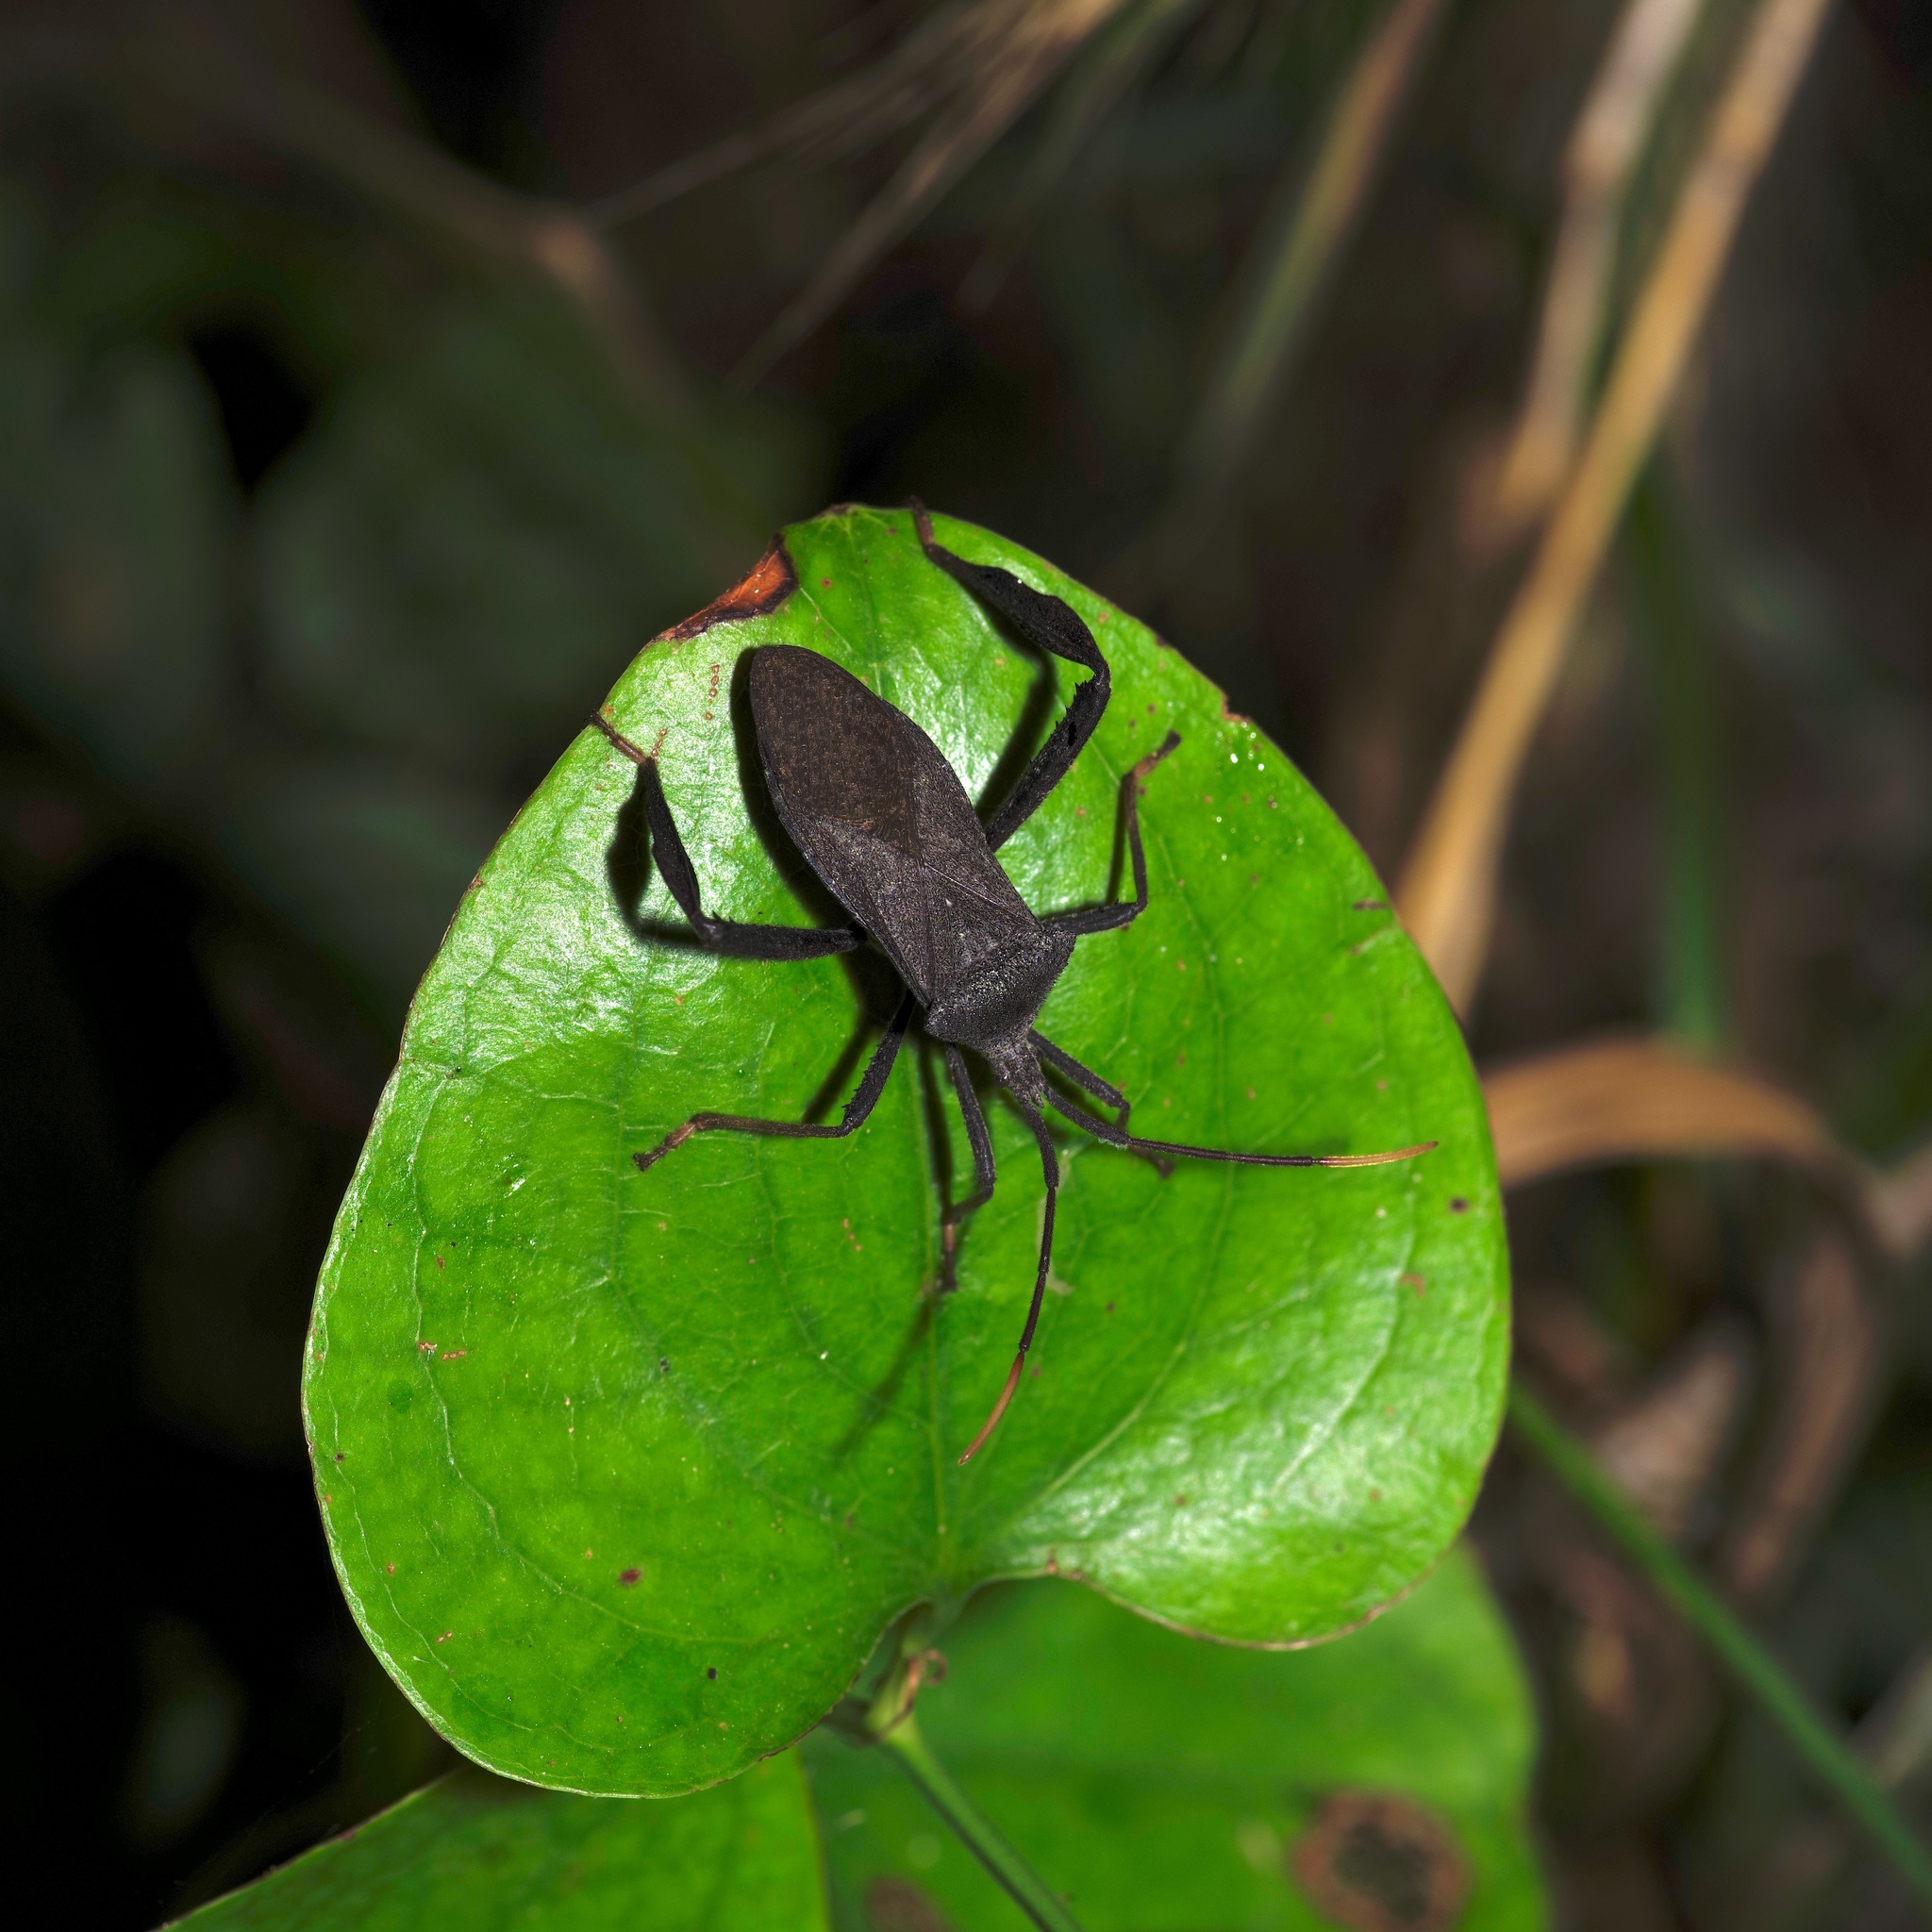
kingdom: Animalia
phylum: Arthropoda
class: Insecta
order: Hemiptera
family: Coreidae
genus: Acanthocephala
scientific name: Acanthocephala terminalis
